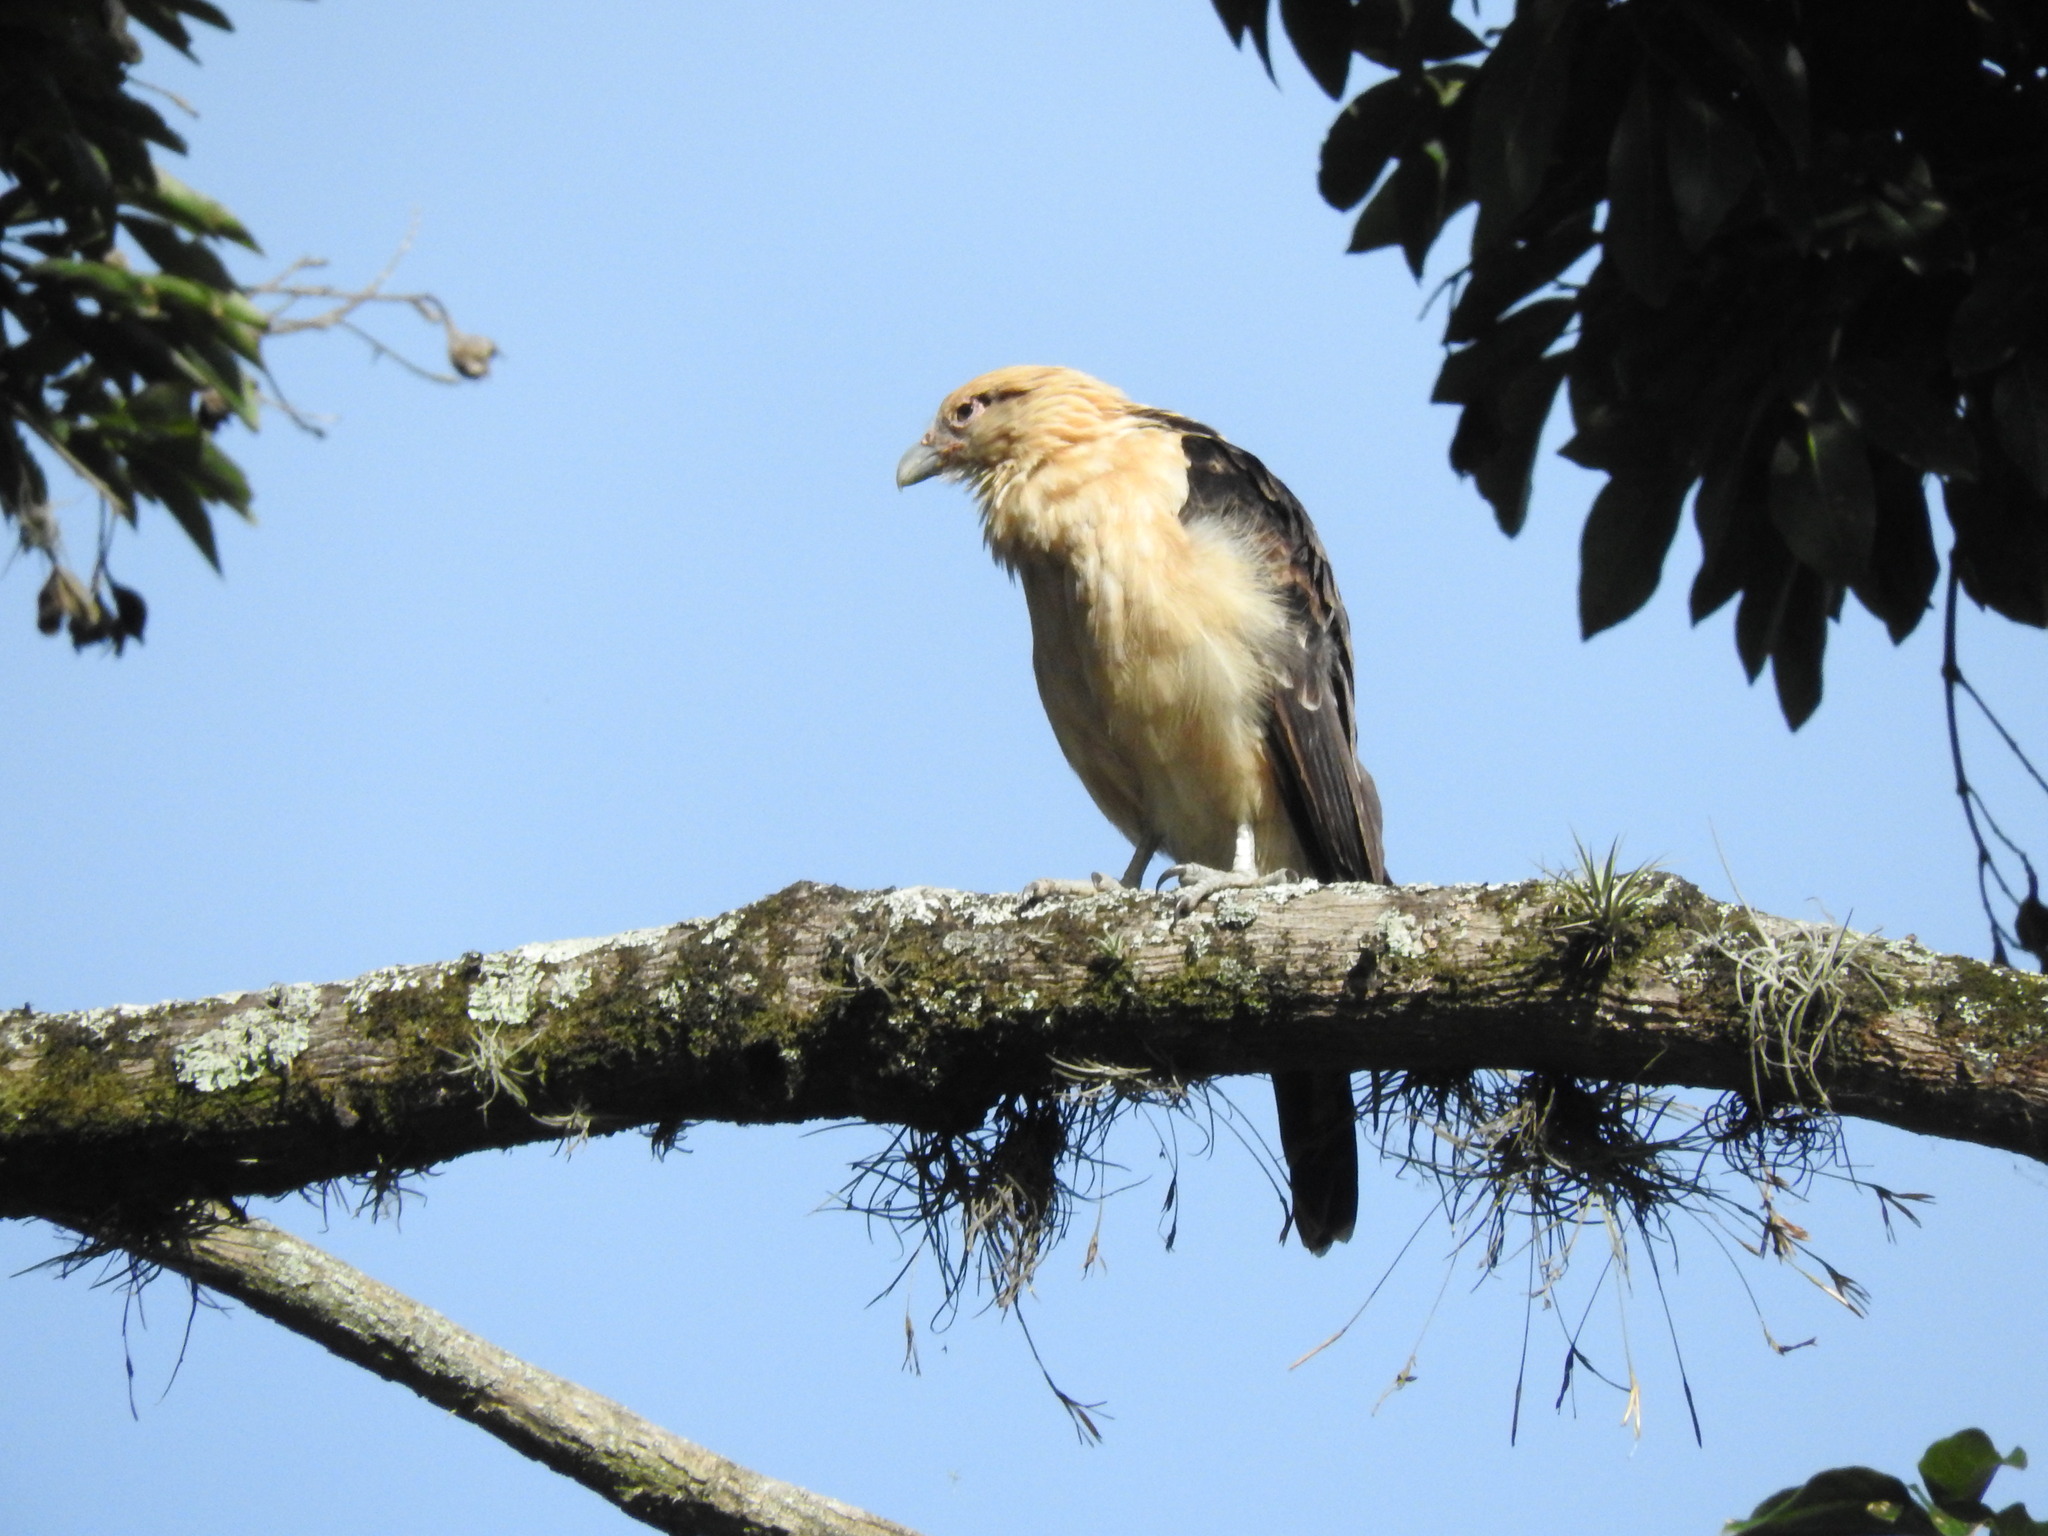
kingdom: Animalia
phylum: Chordata
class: Aves
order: Falconiformes
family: Falconidae
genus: Daptrius
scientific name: Daptrius
